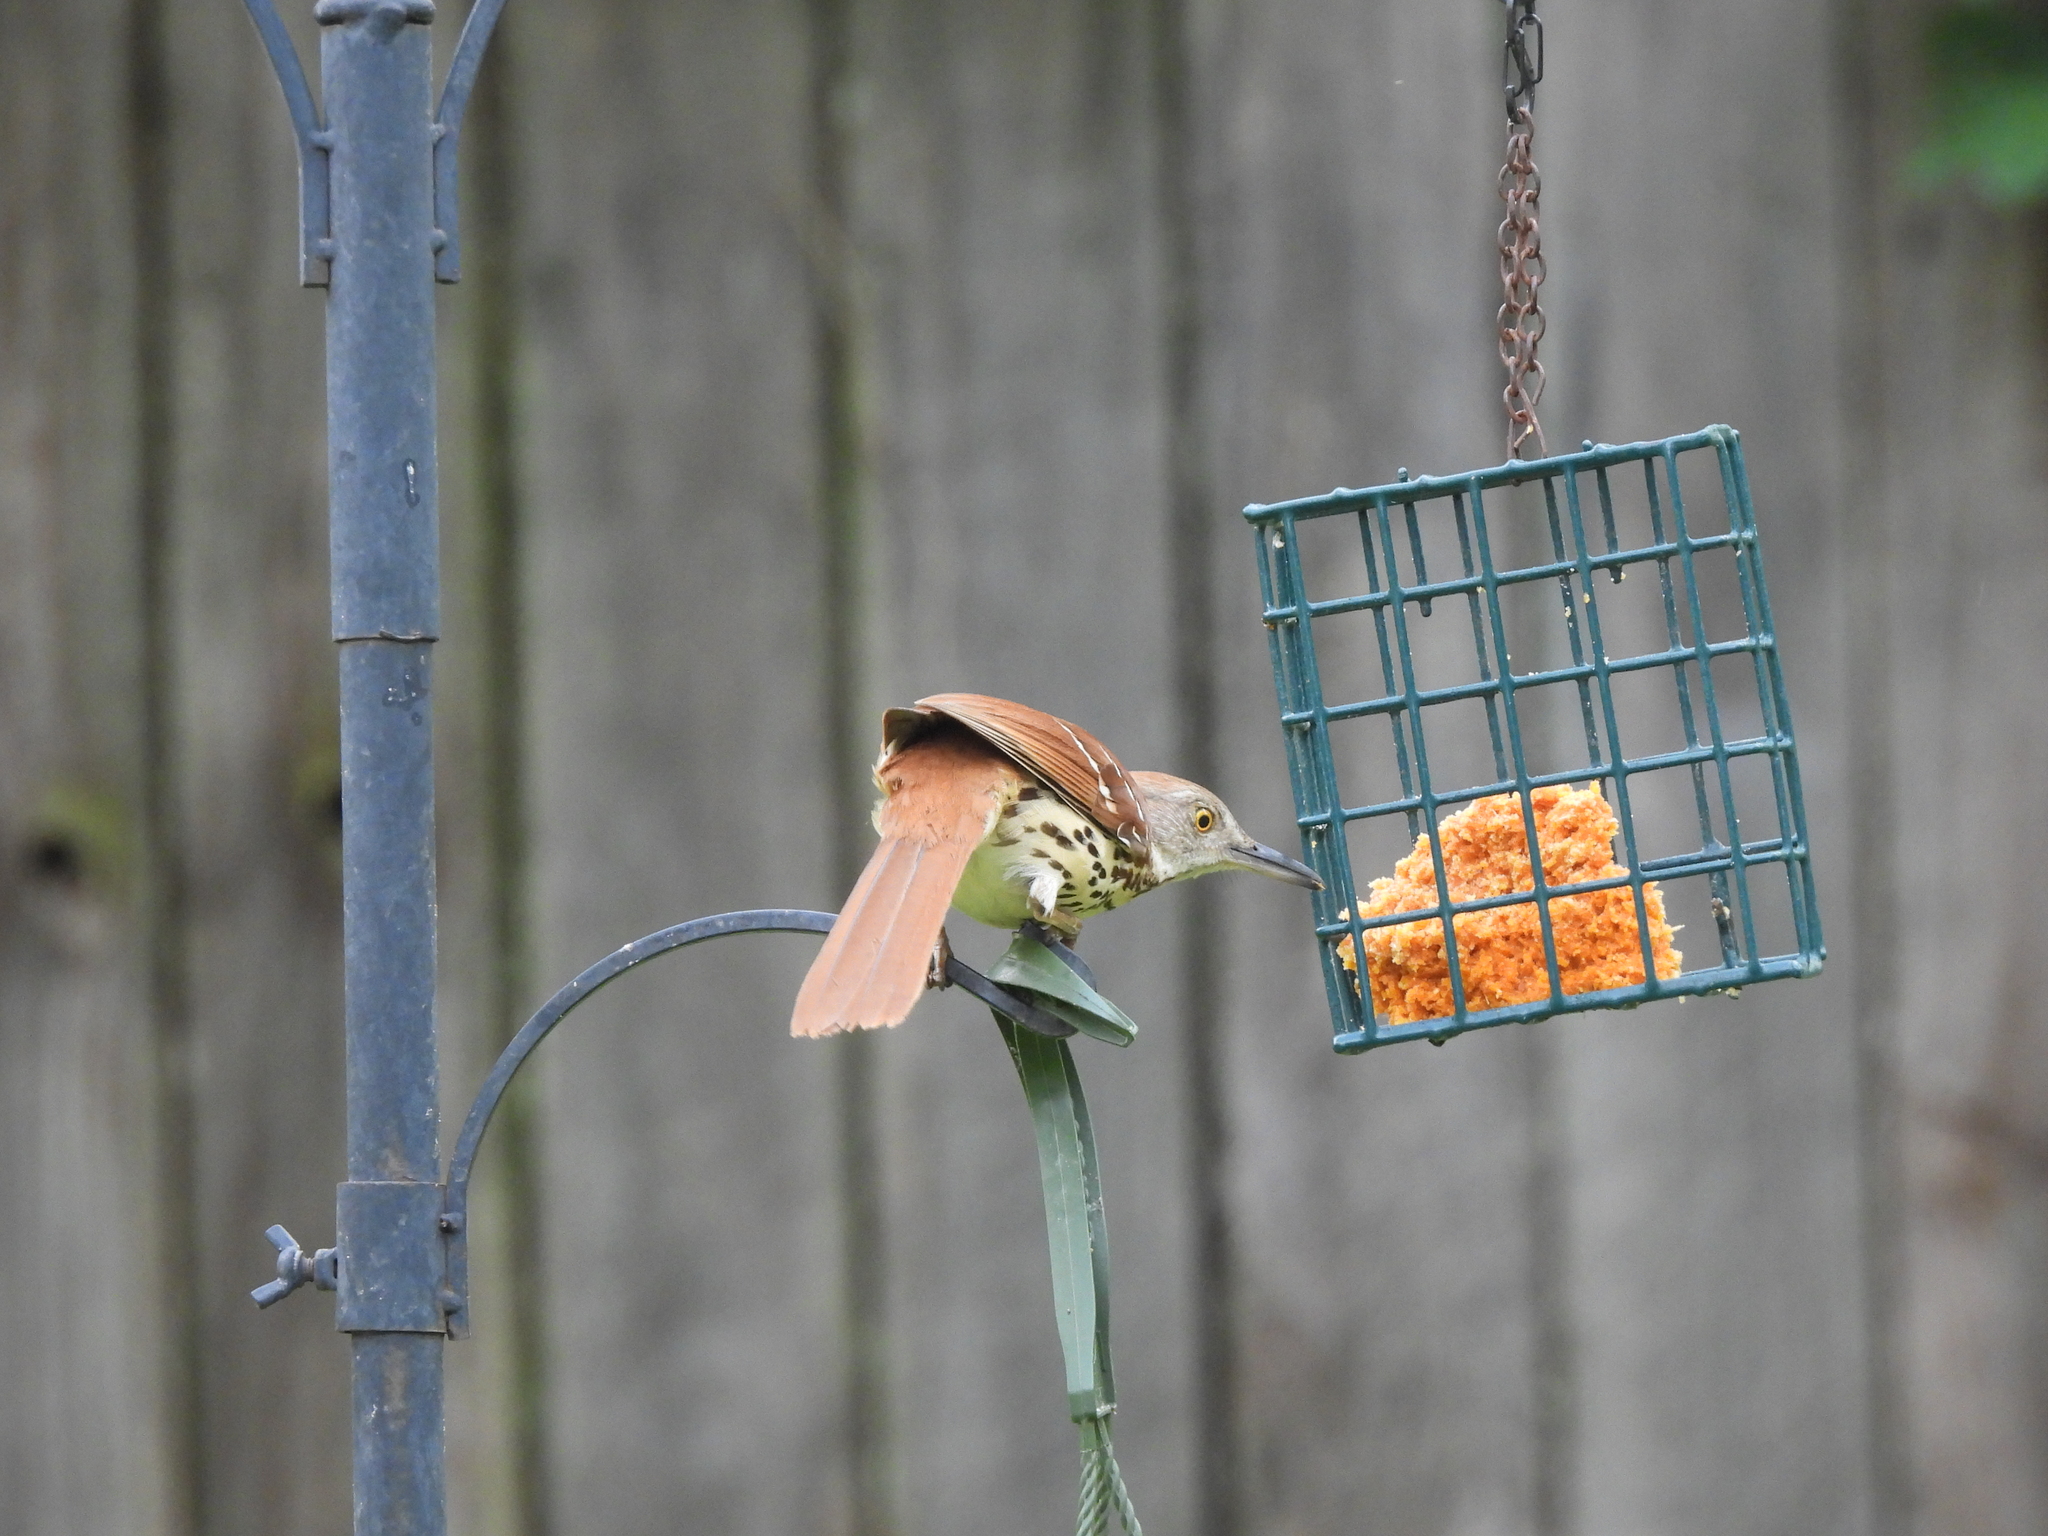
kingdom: Animalia
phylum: Chordata
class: Aves
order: Passeriformes
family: Mimidae
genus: Toxostoma
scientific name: Toxostoma rufum
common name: Brown thrasher
